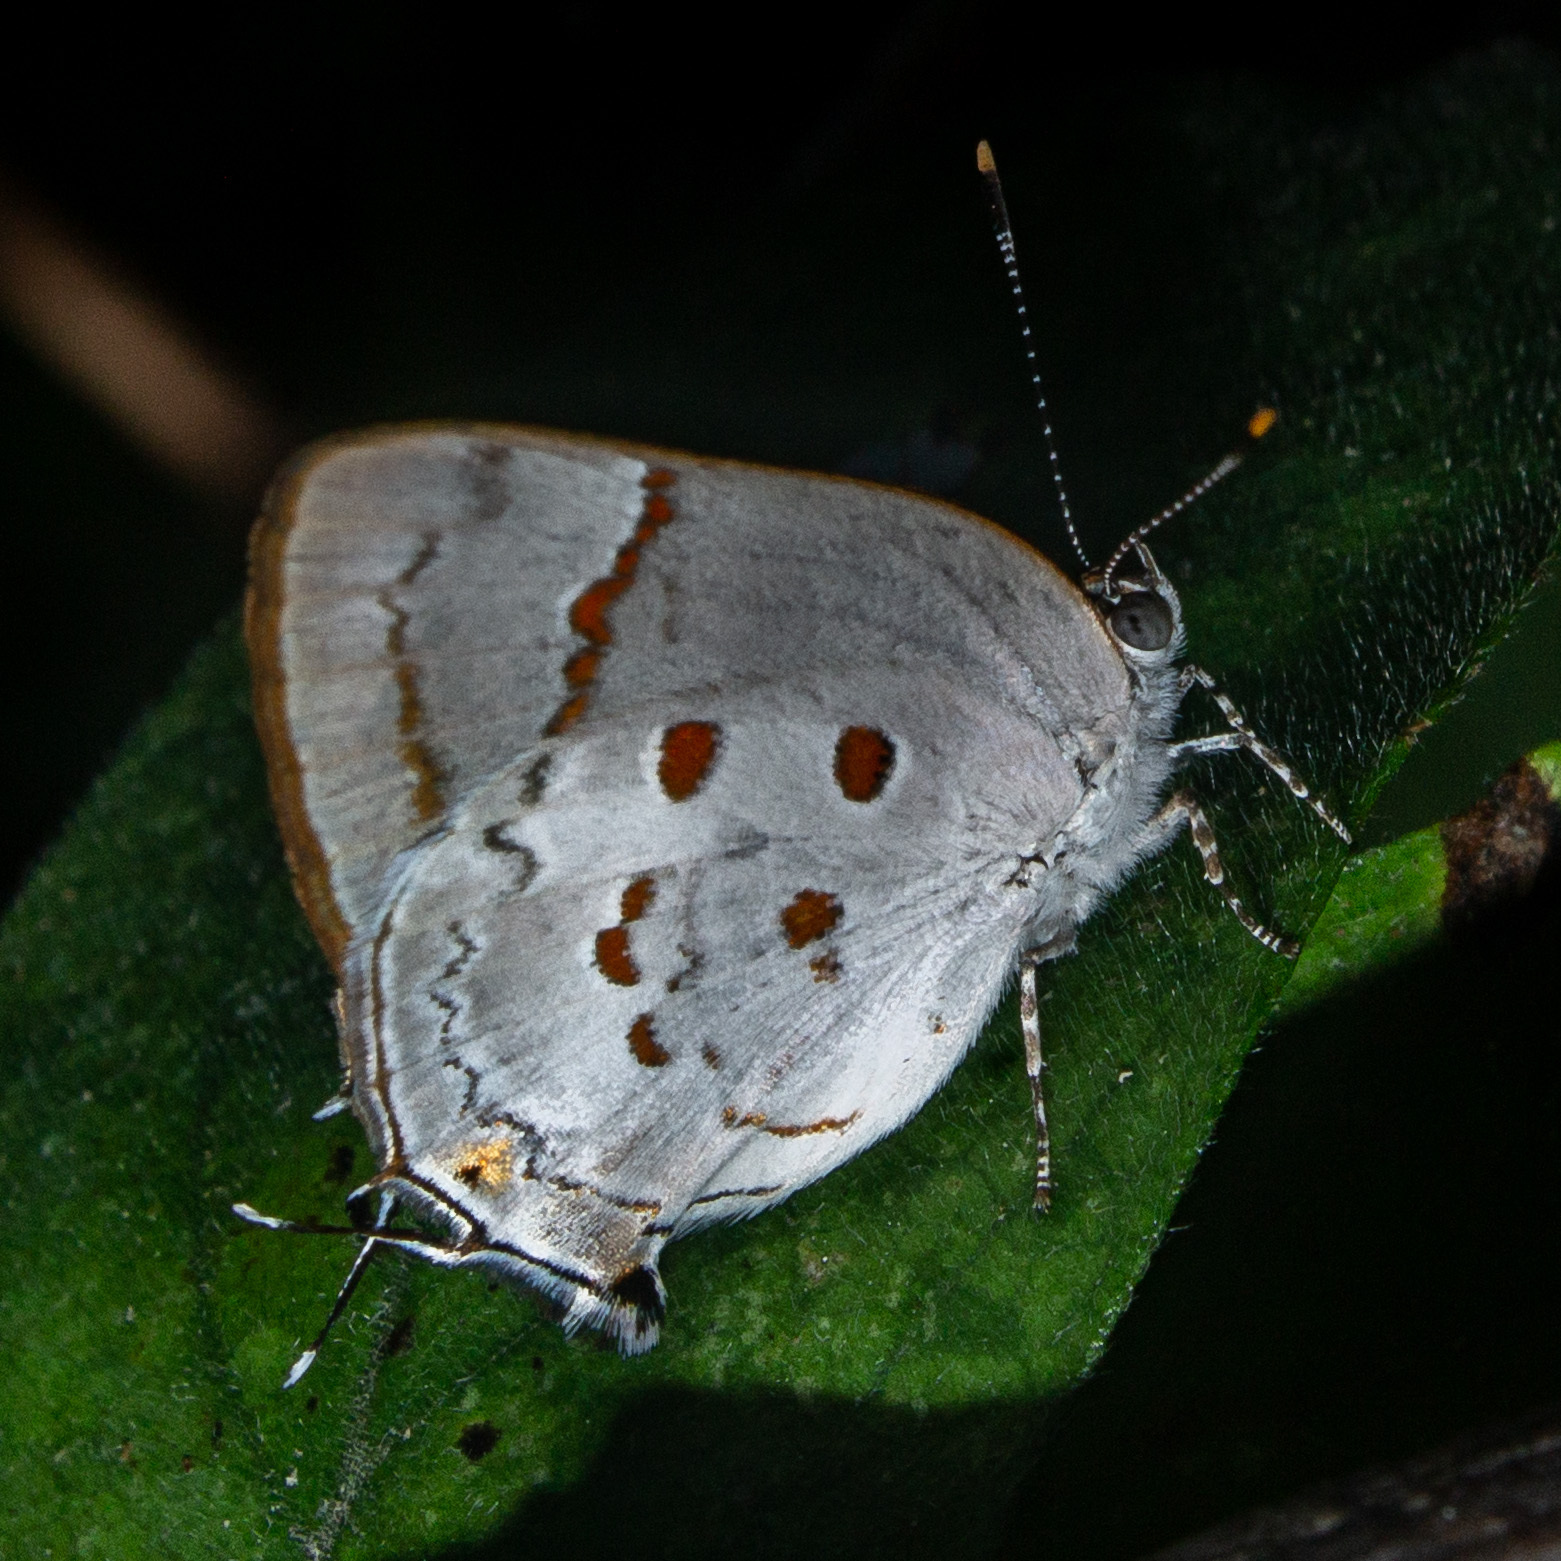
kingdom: Animalia
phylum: Arthropoda
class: Insecta
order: Lepidoptera
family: Lycaenidae
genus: Tmolus
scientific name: Tmolus echion
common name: Red-spotted hairstreak
